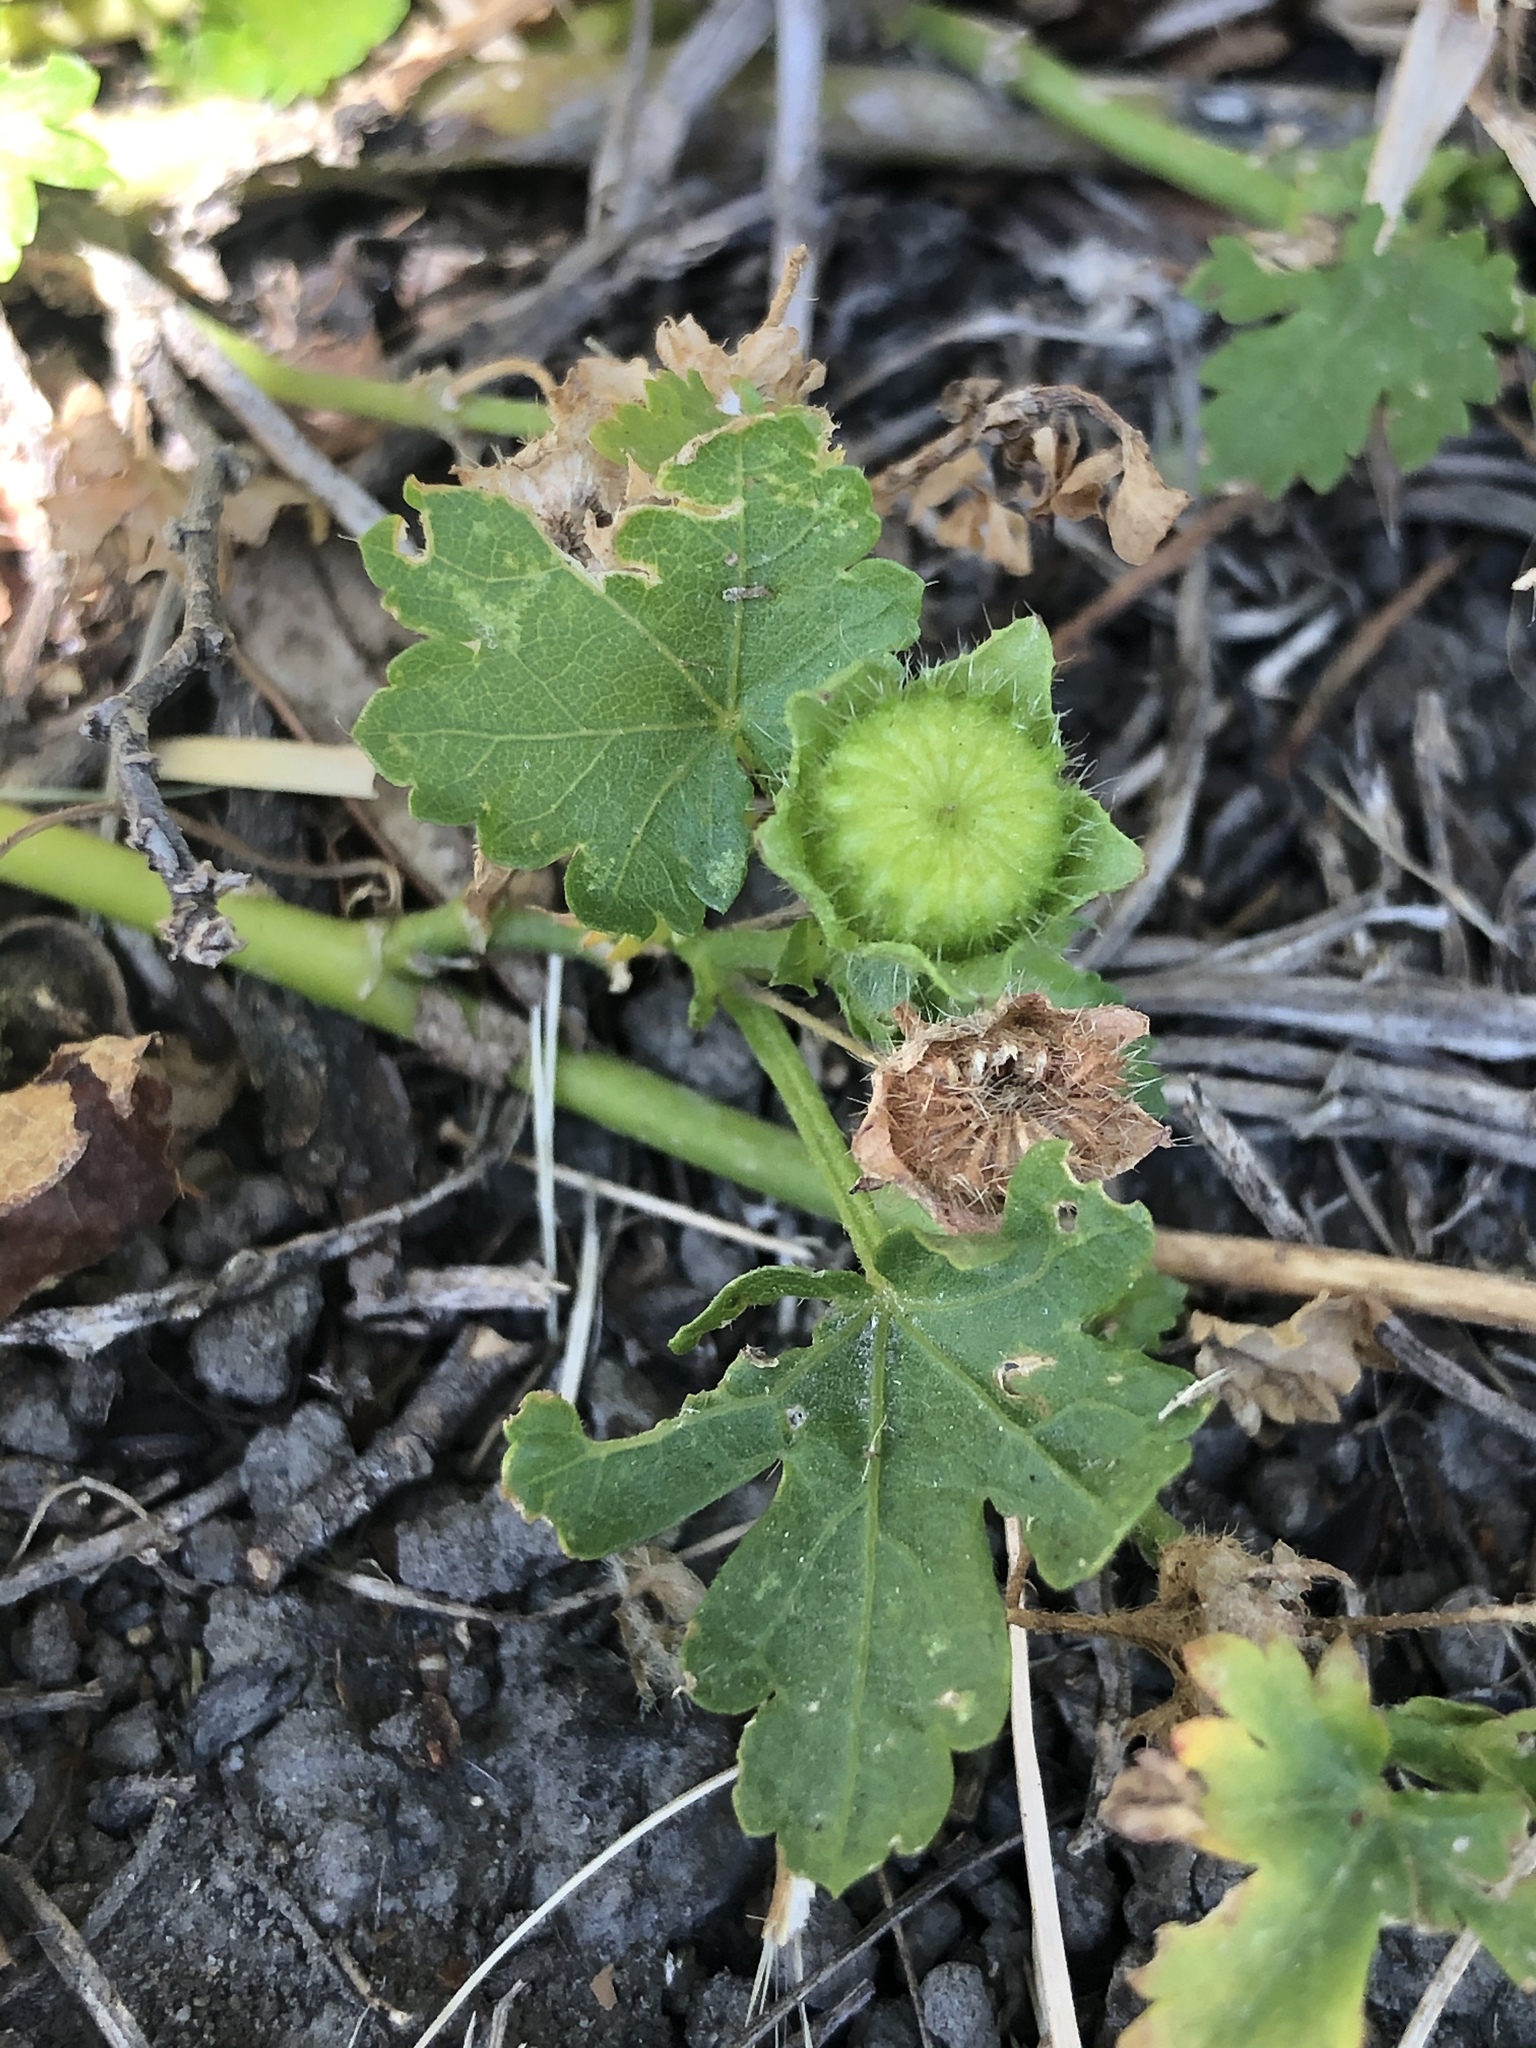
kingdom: Plantae
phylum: Tracheophyta
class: Magnoliopsida
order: Malvales
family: Malvaceae
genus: Modiola
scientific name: Modiola caroliniana
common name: Carolina bristlemallow
